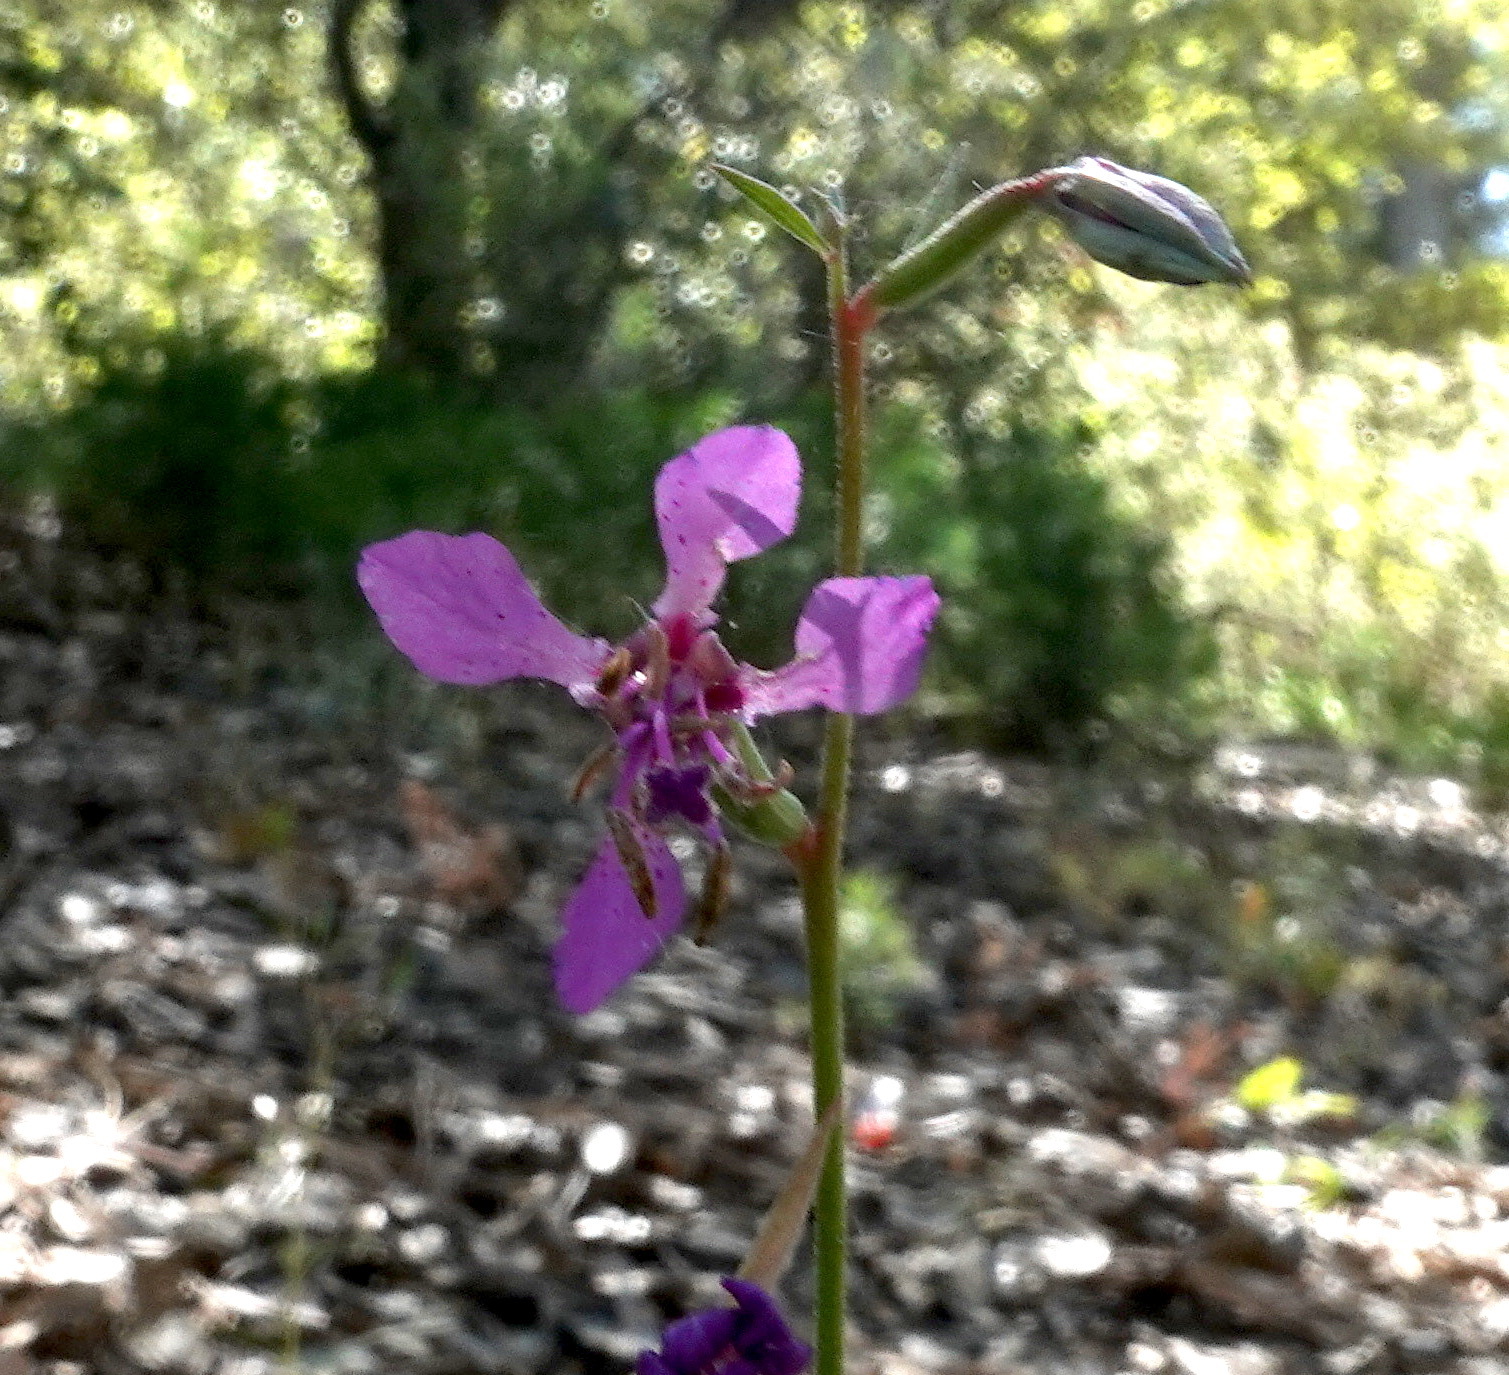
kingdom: Plantae
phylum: Tracheophyta
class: Magnoliopsida
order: Myrtales
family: Onagraceae
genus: Clarkia
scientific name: Clarkia rhomboidea
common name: Broadleaf clarkia
